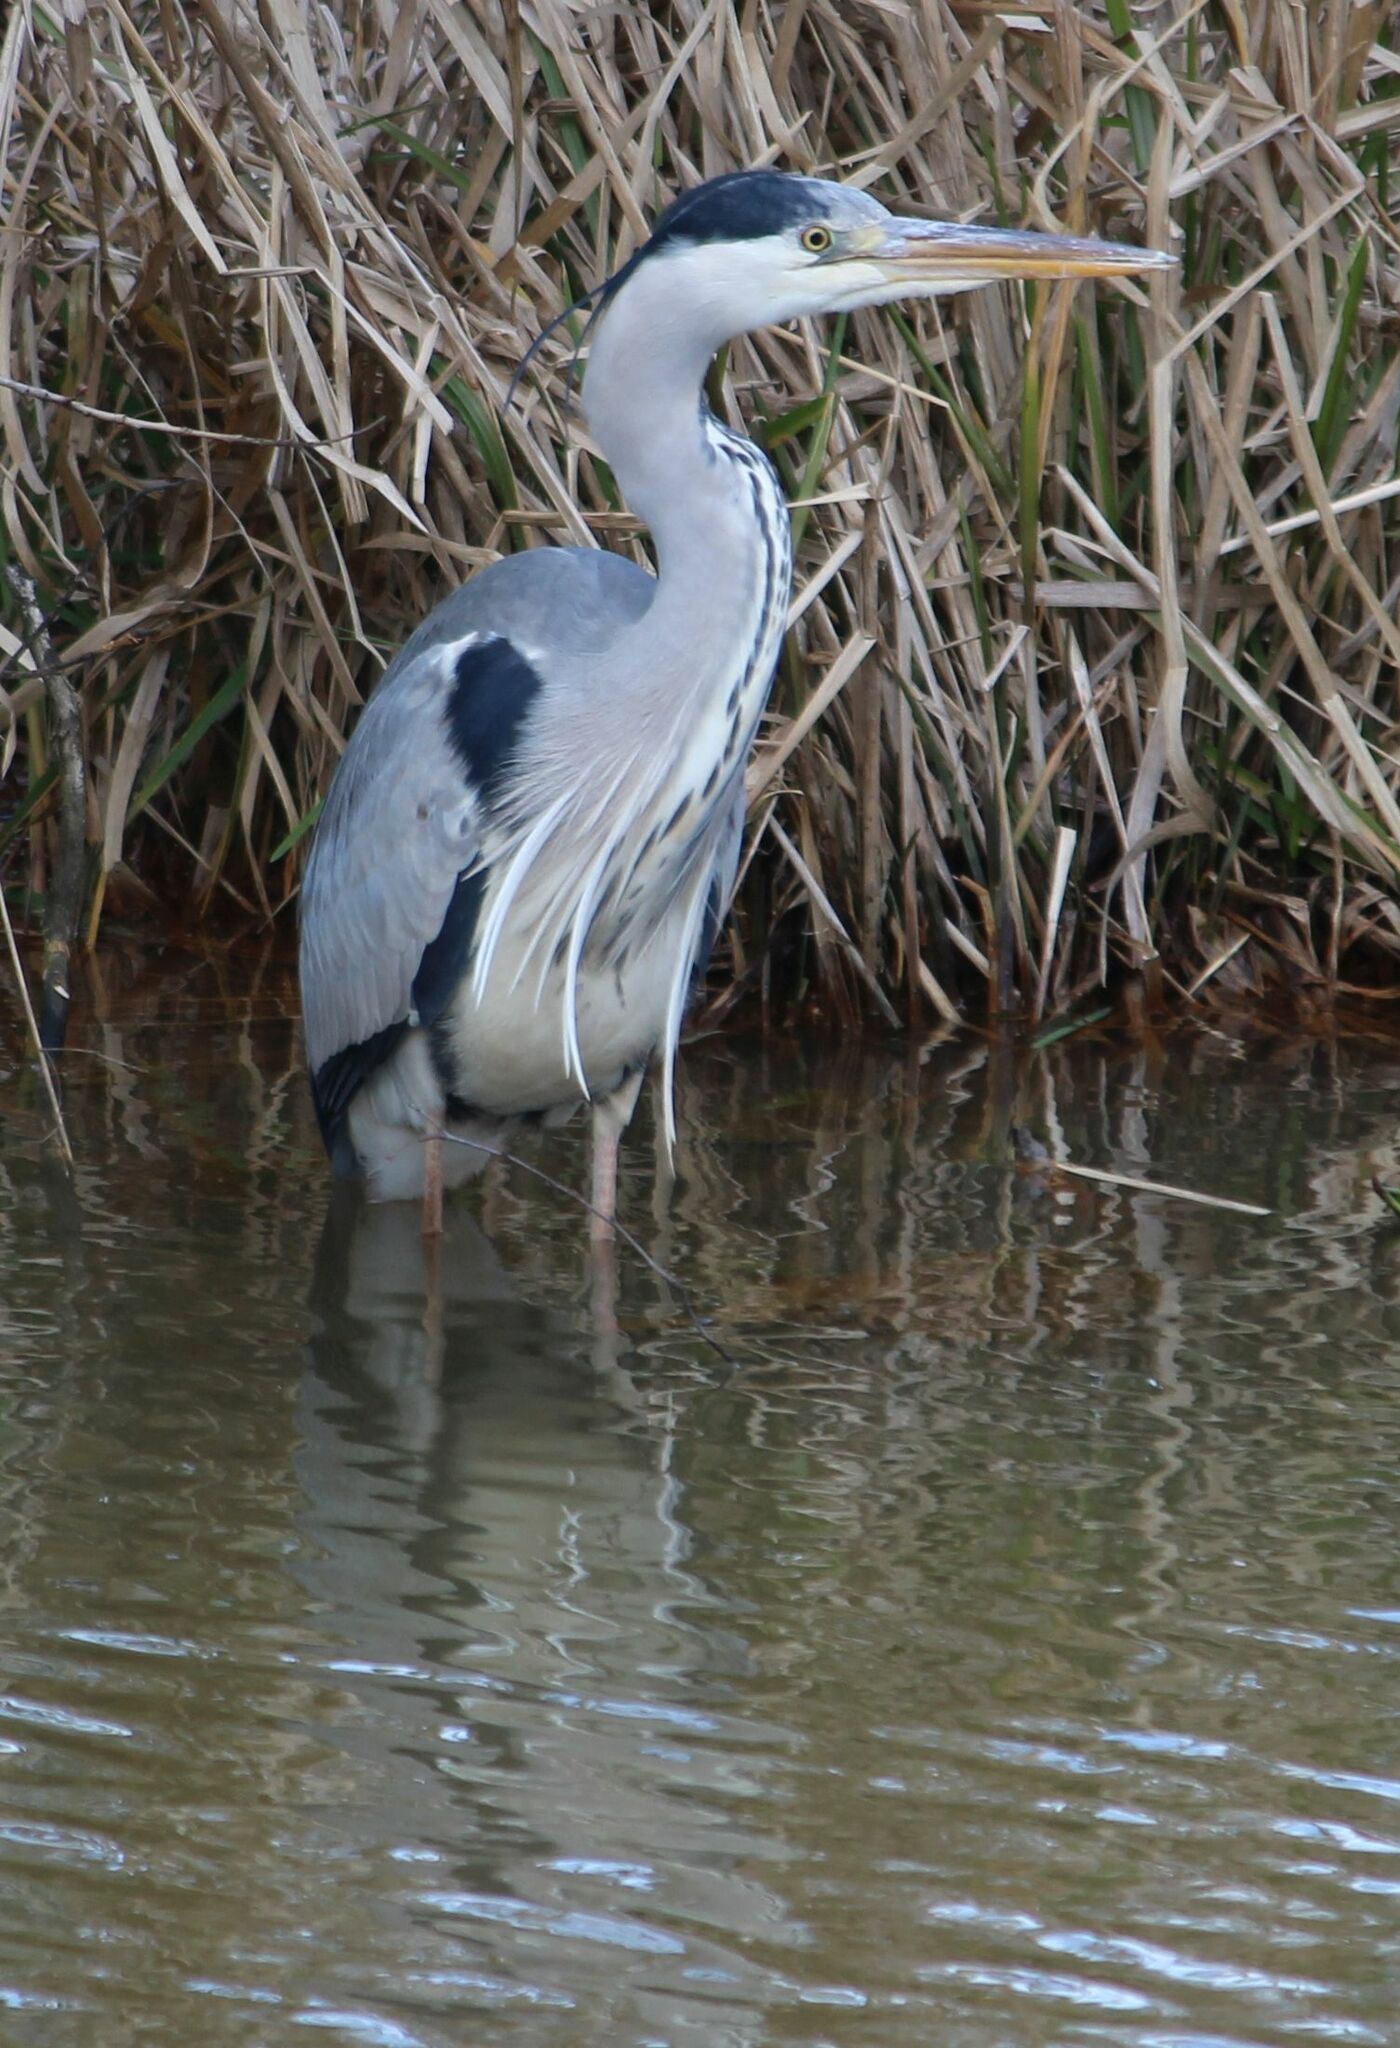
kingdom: Animalia
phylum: Chordata
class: Aves
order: Pelecaniformes
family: Ardeidae
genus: Ardea
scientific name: Ardea cinerea
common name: Grey heron
